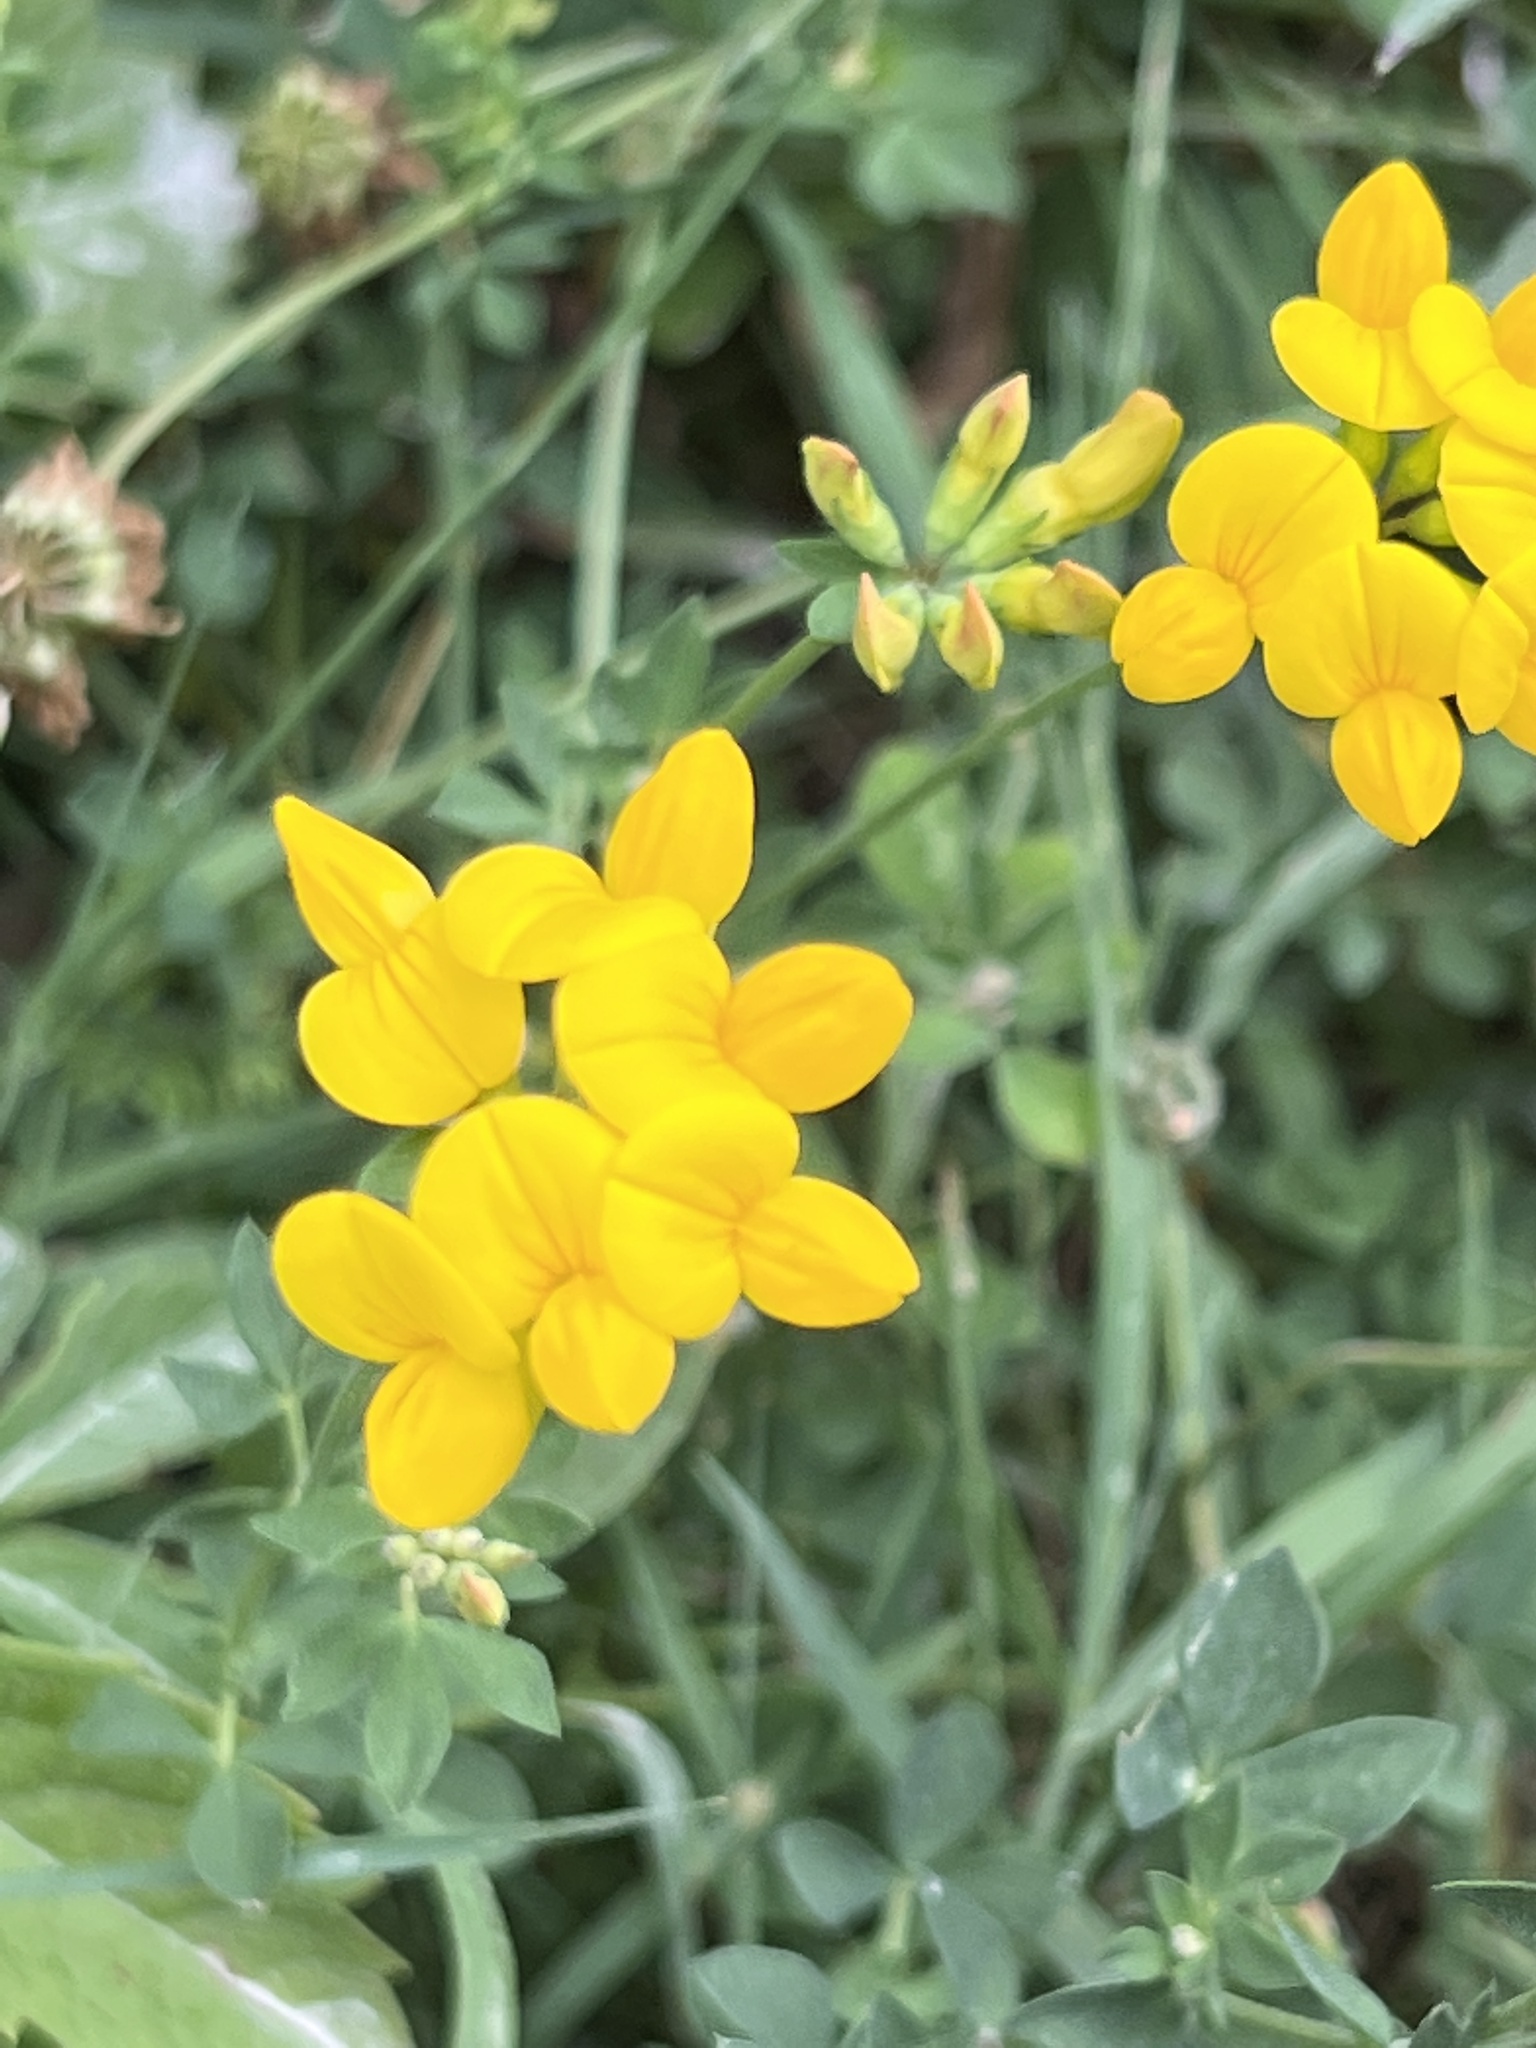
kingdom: Plantae
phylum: Tracheophyta
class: Magnoliopsida
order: Fabales
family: Fabaceae
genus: Lotus
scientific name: Lotus corniculatus
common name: Common bird's-foot-trefoil
